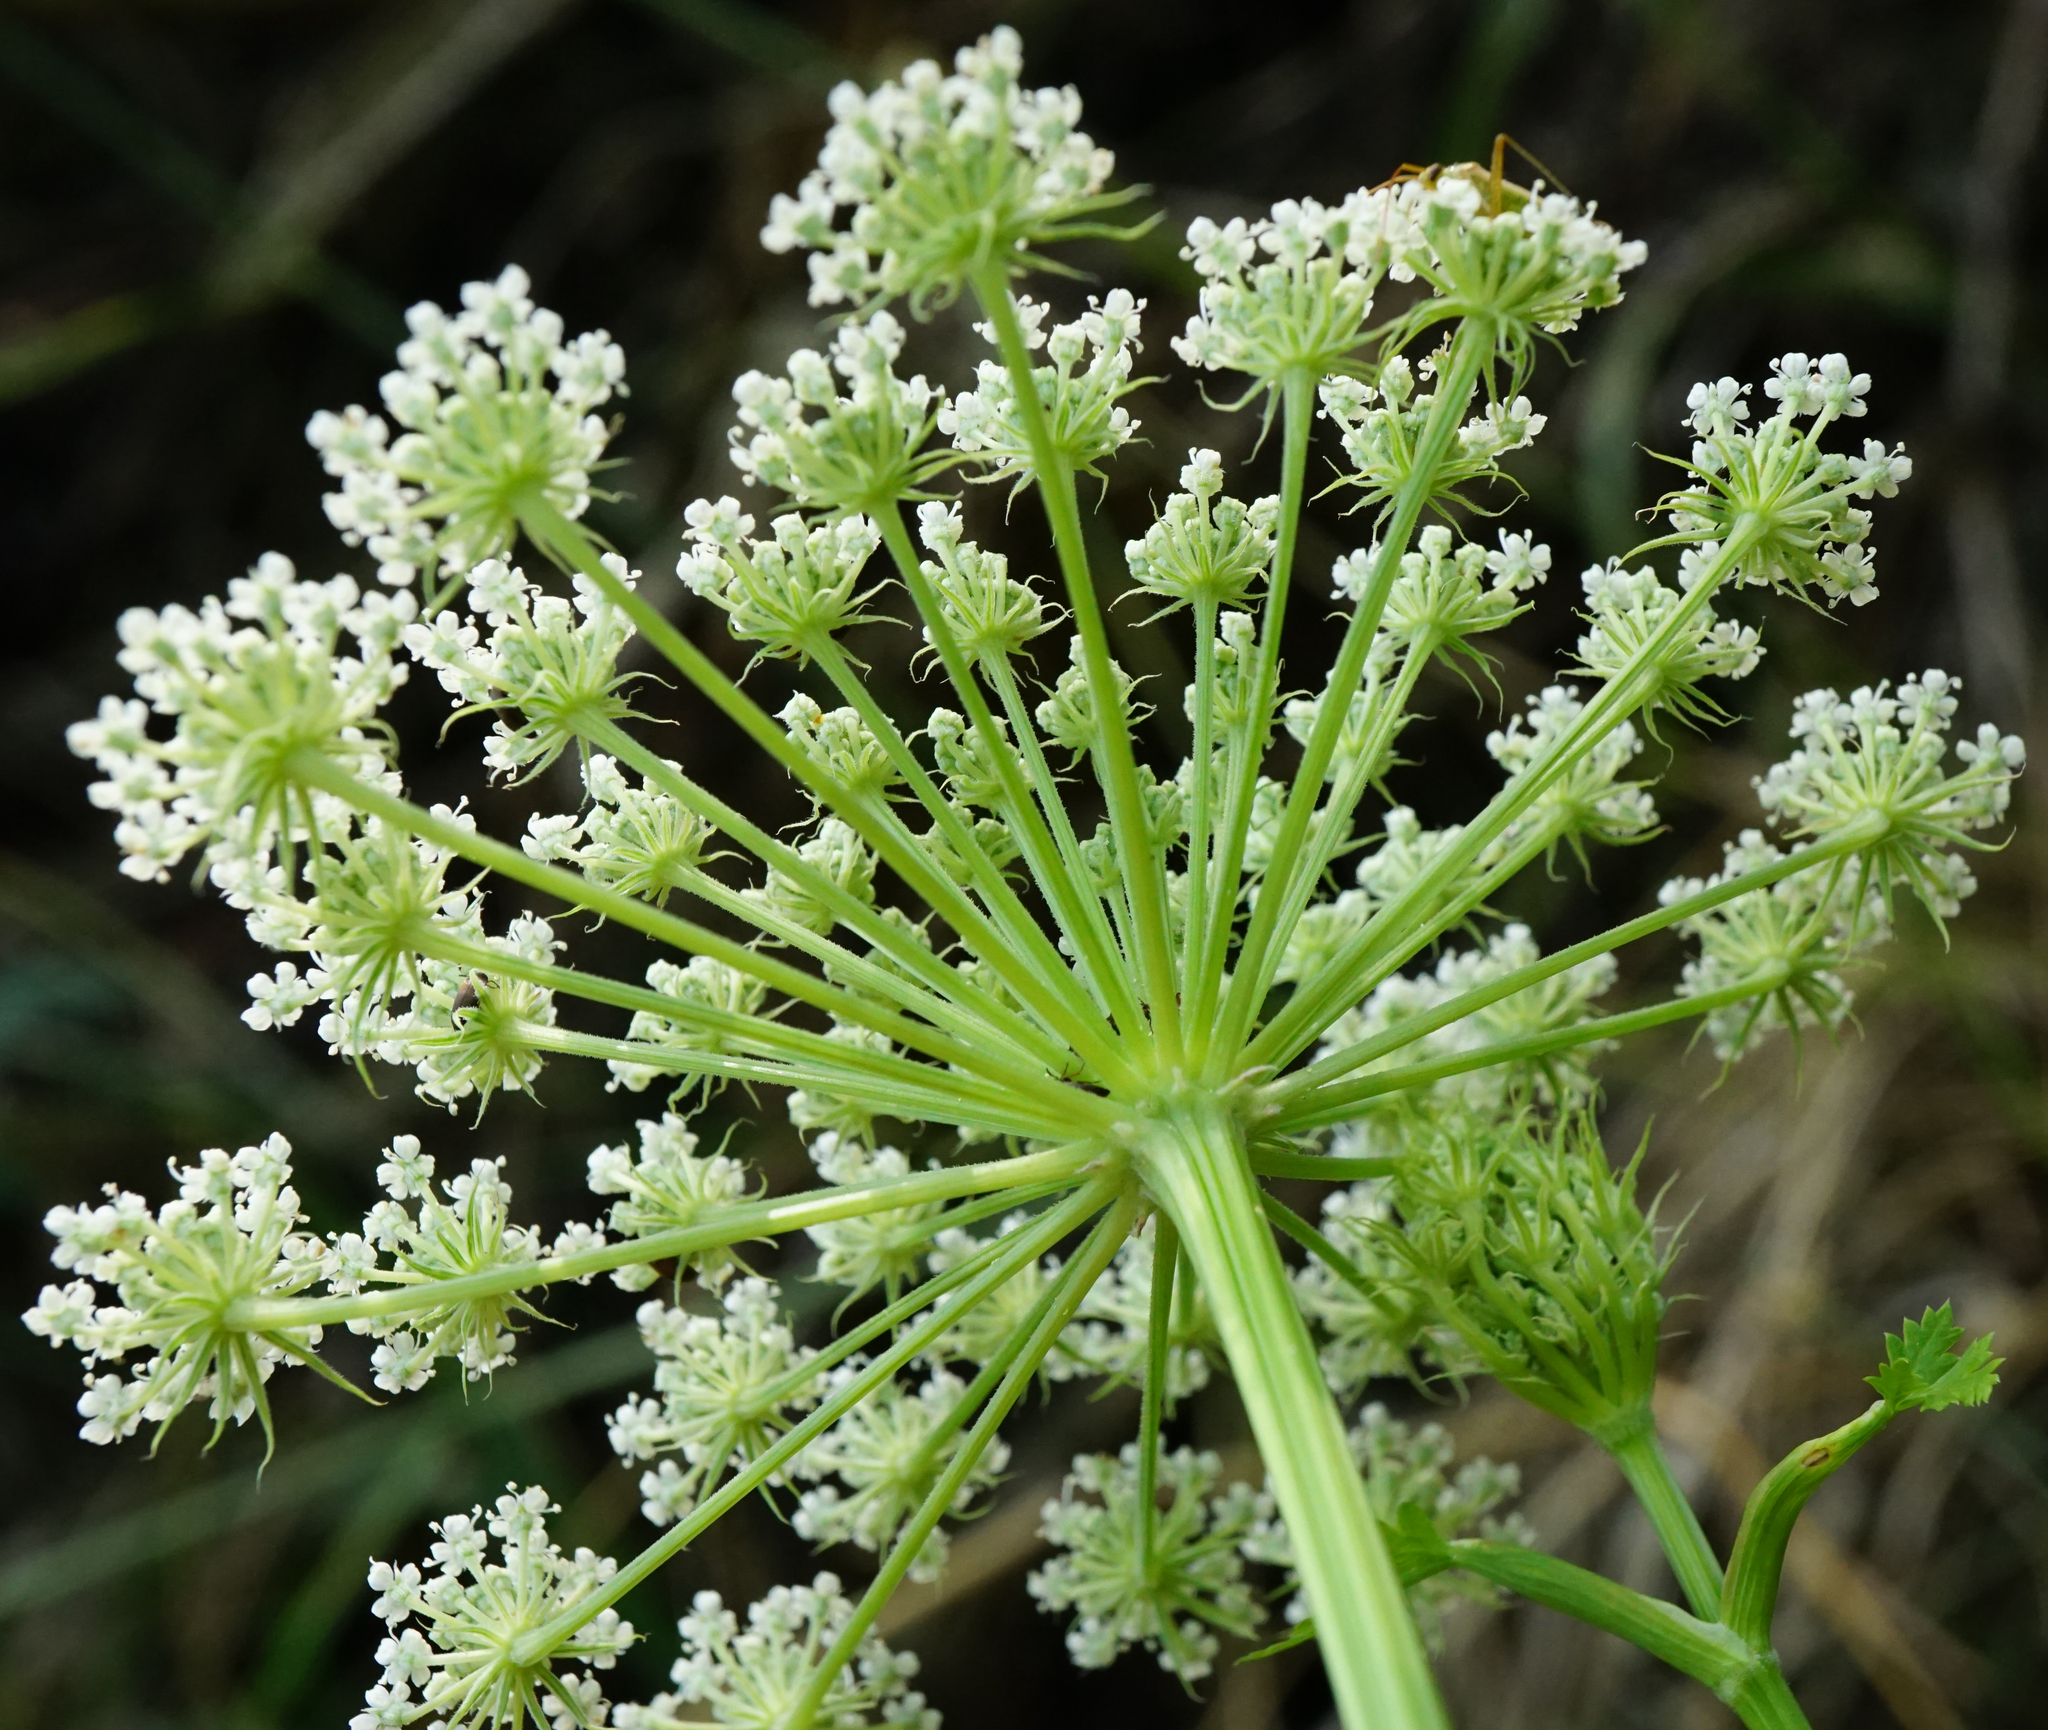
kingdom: Plantae
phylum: Tracheophyta
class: Magnoliopsida
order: Apiales
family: Apiaceae
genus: Seseli
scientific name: Seseli libanotis
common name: Mooncarrot
